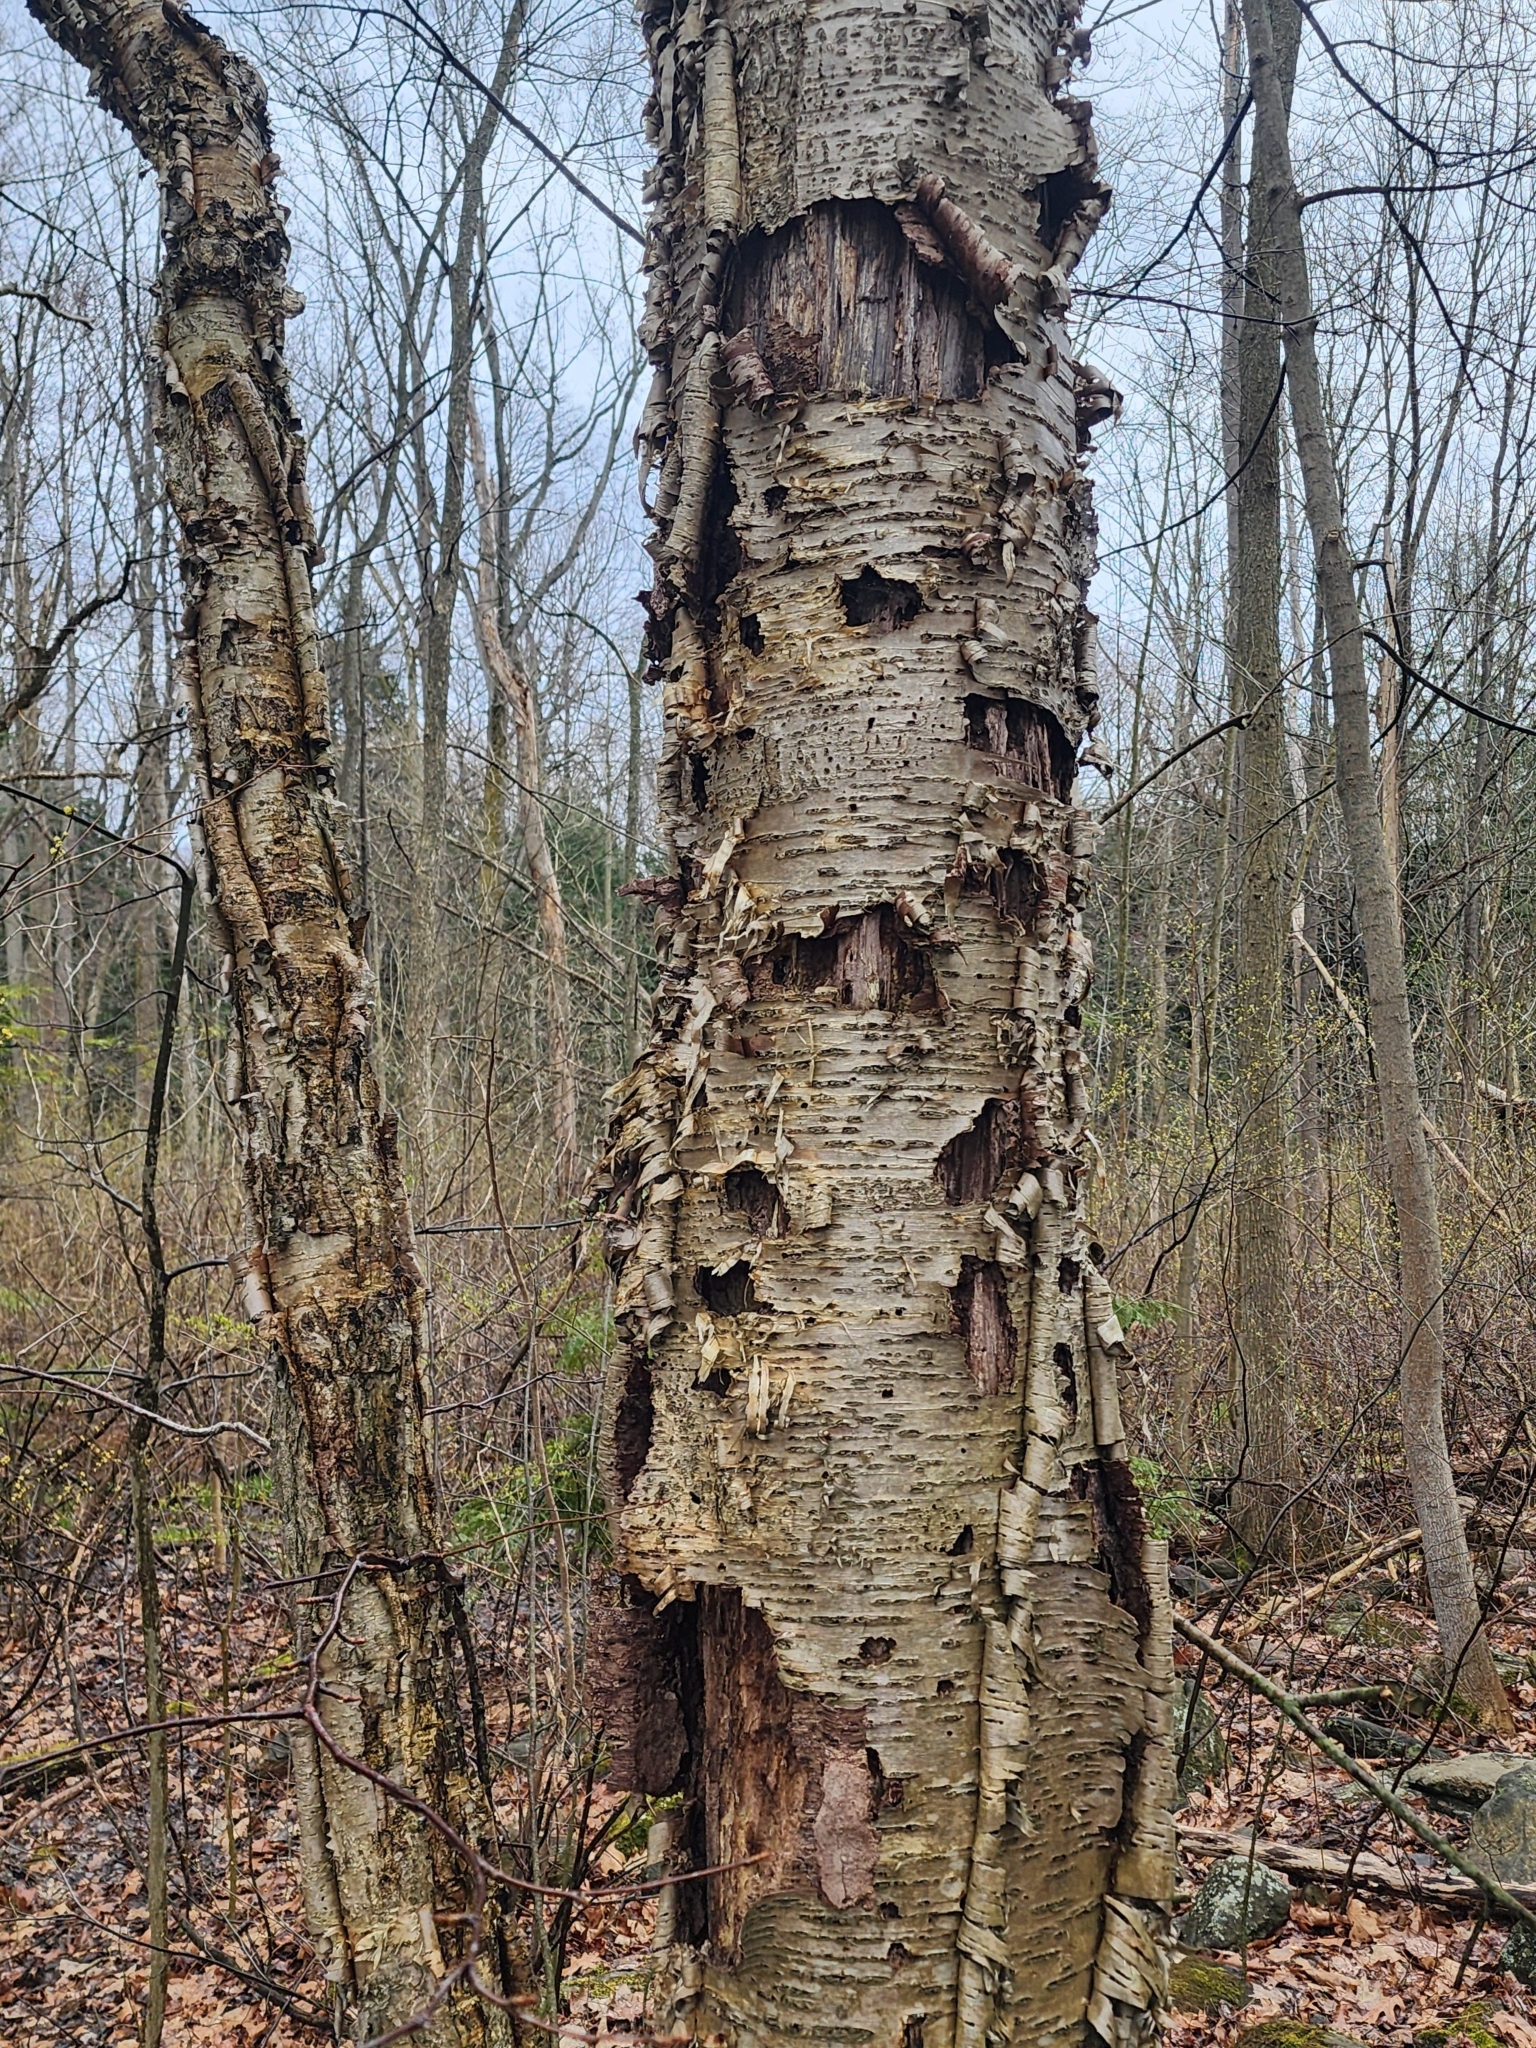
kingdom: Plantae
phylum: Tracheophyta
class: Magnoliopsida
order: Fagales
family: Betulaceae
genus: Betula
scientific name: Betula alleghaniensis
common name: Yellow birch
